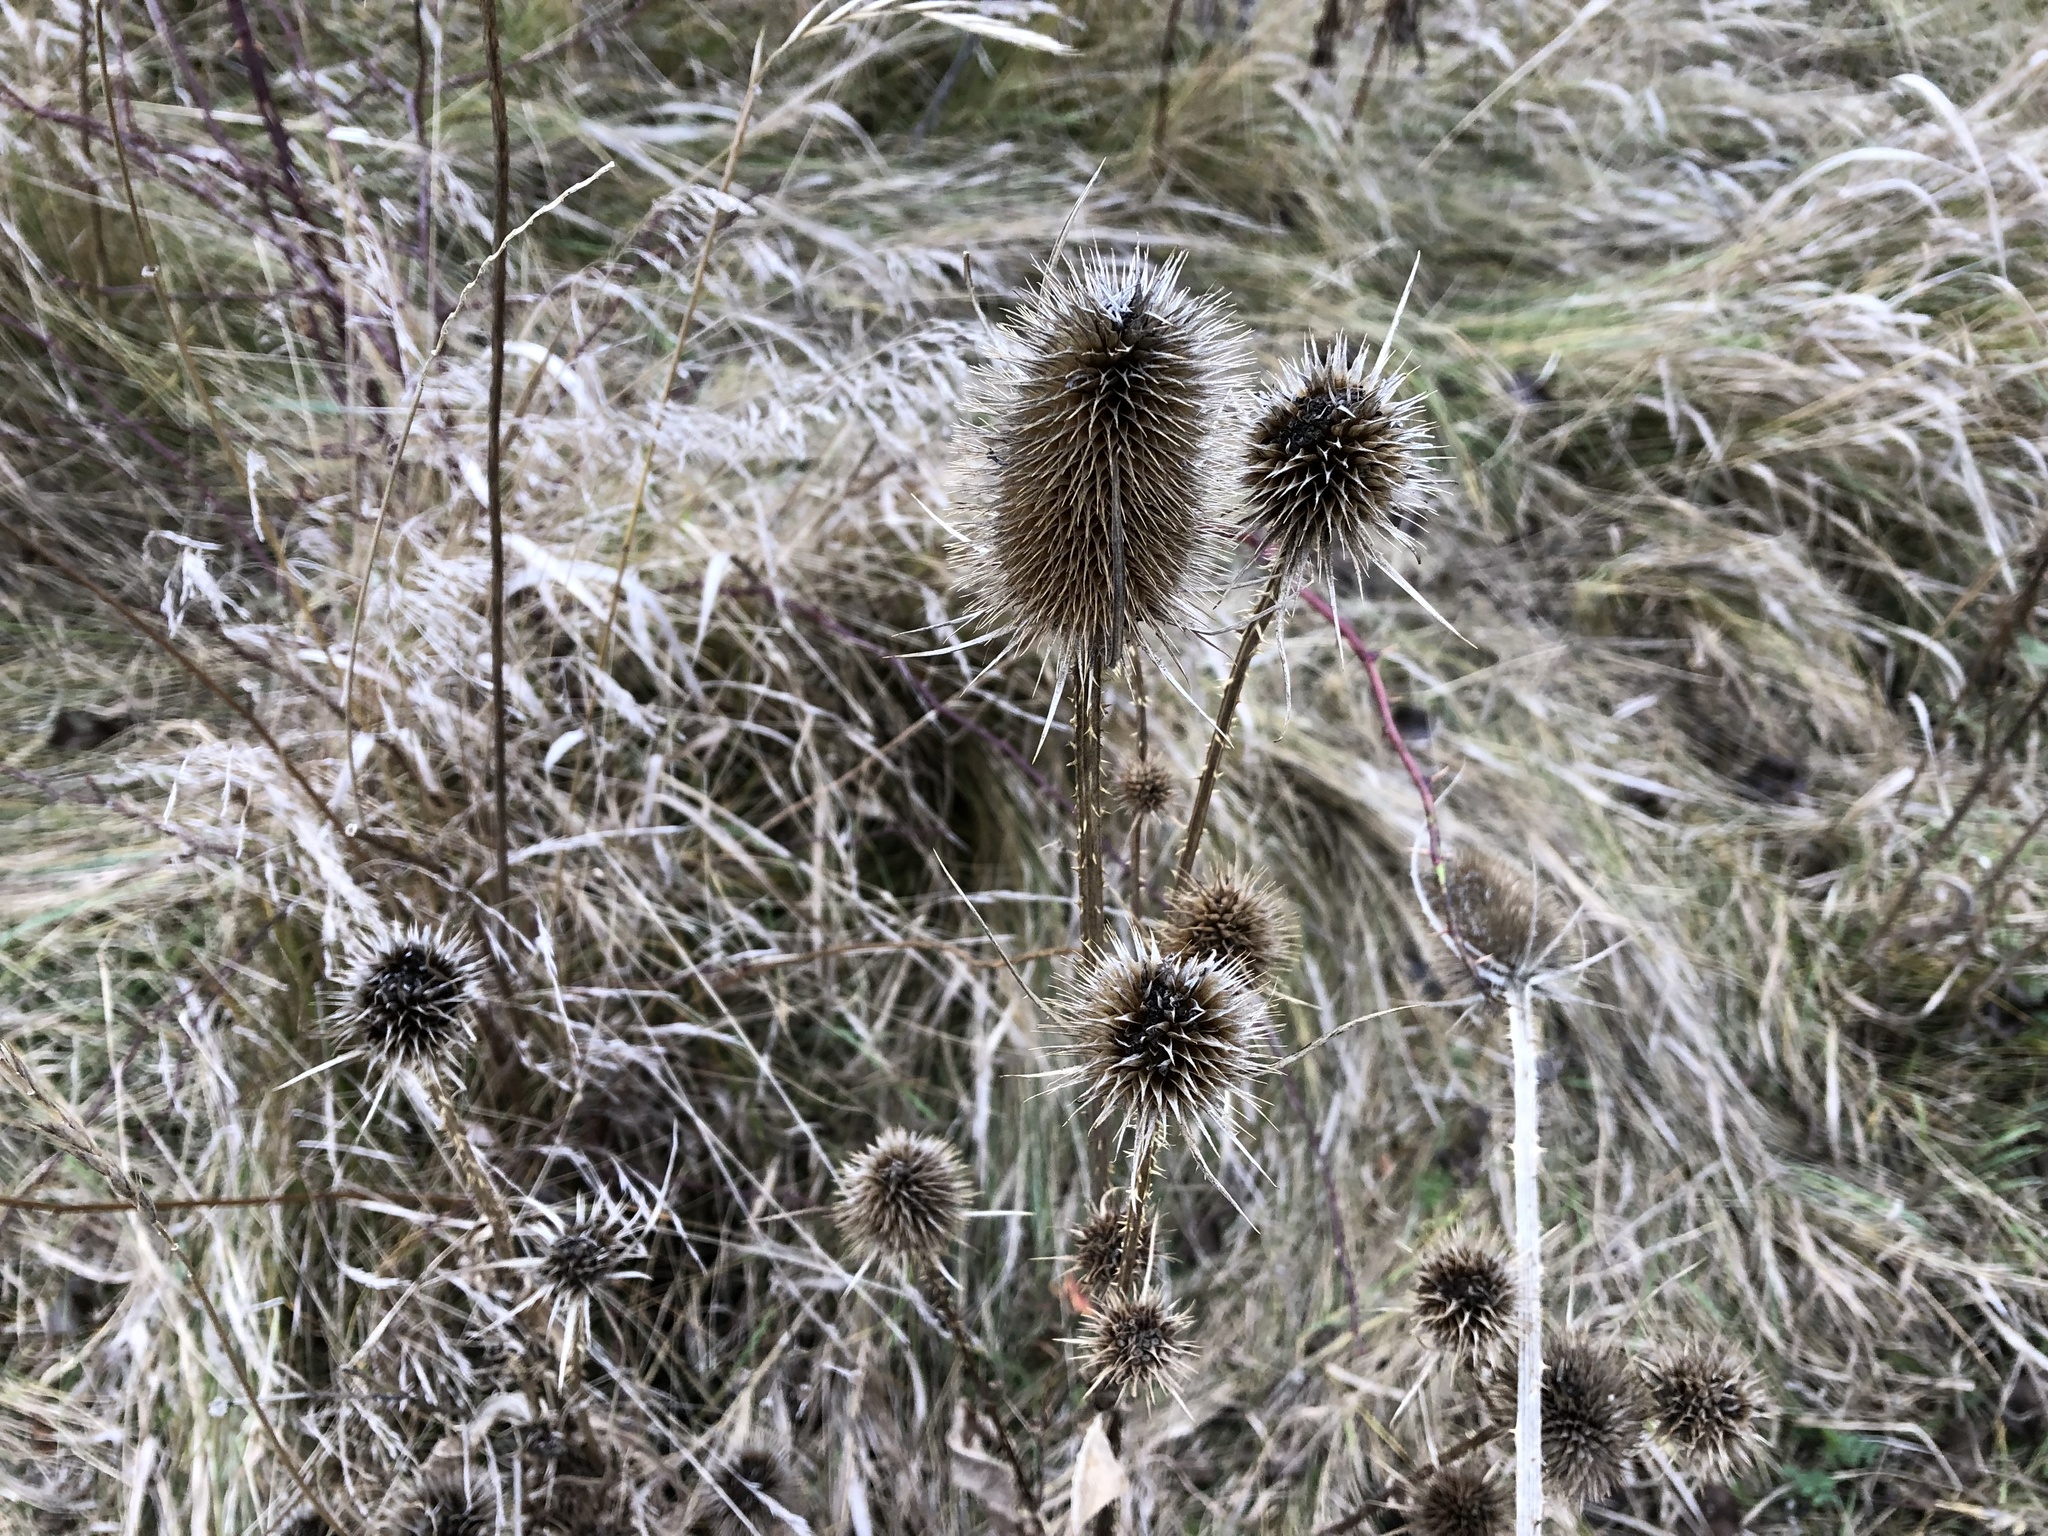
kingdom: Plantae
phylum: Tracheophyta
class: Magnoliopsida
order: Dipsacales
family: Caprifoliaceae
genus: Dipsacus
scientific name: Dipsacus fullonum
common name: Teasel
